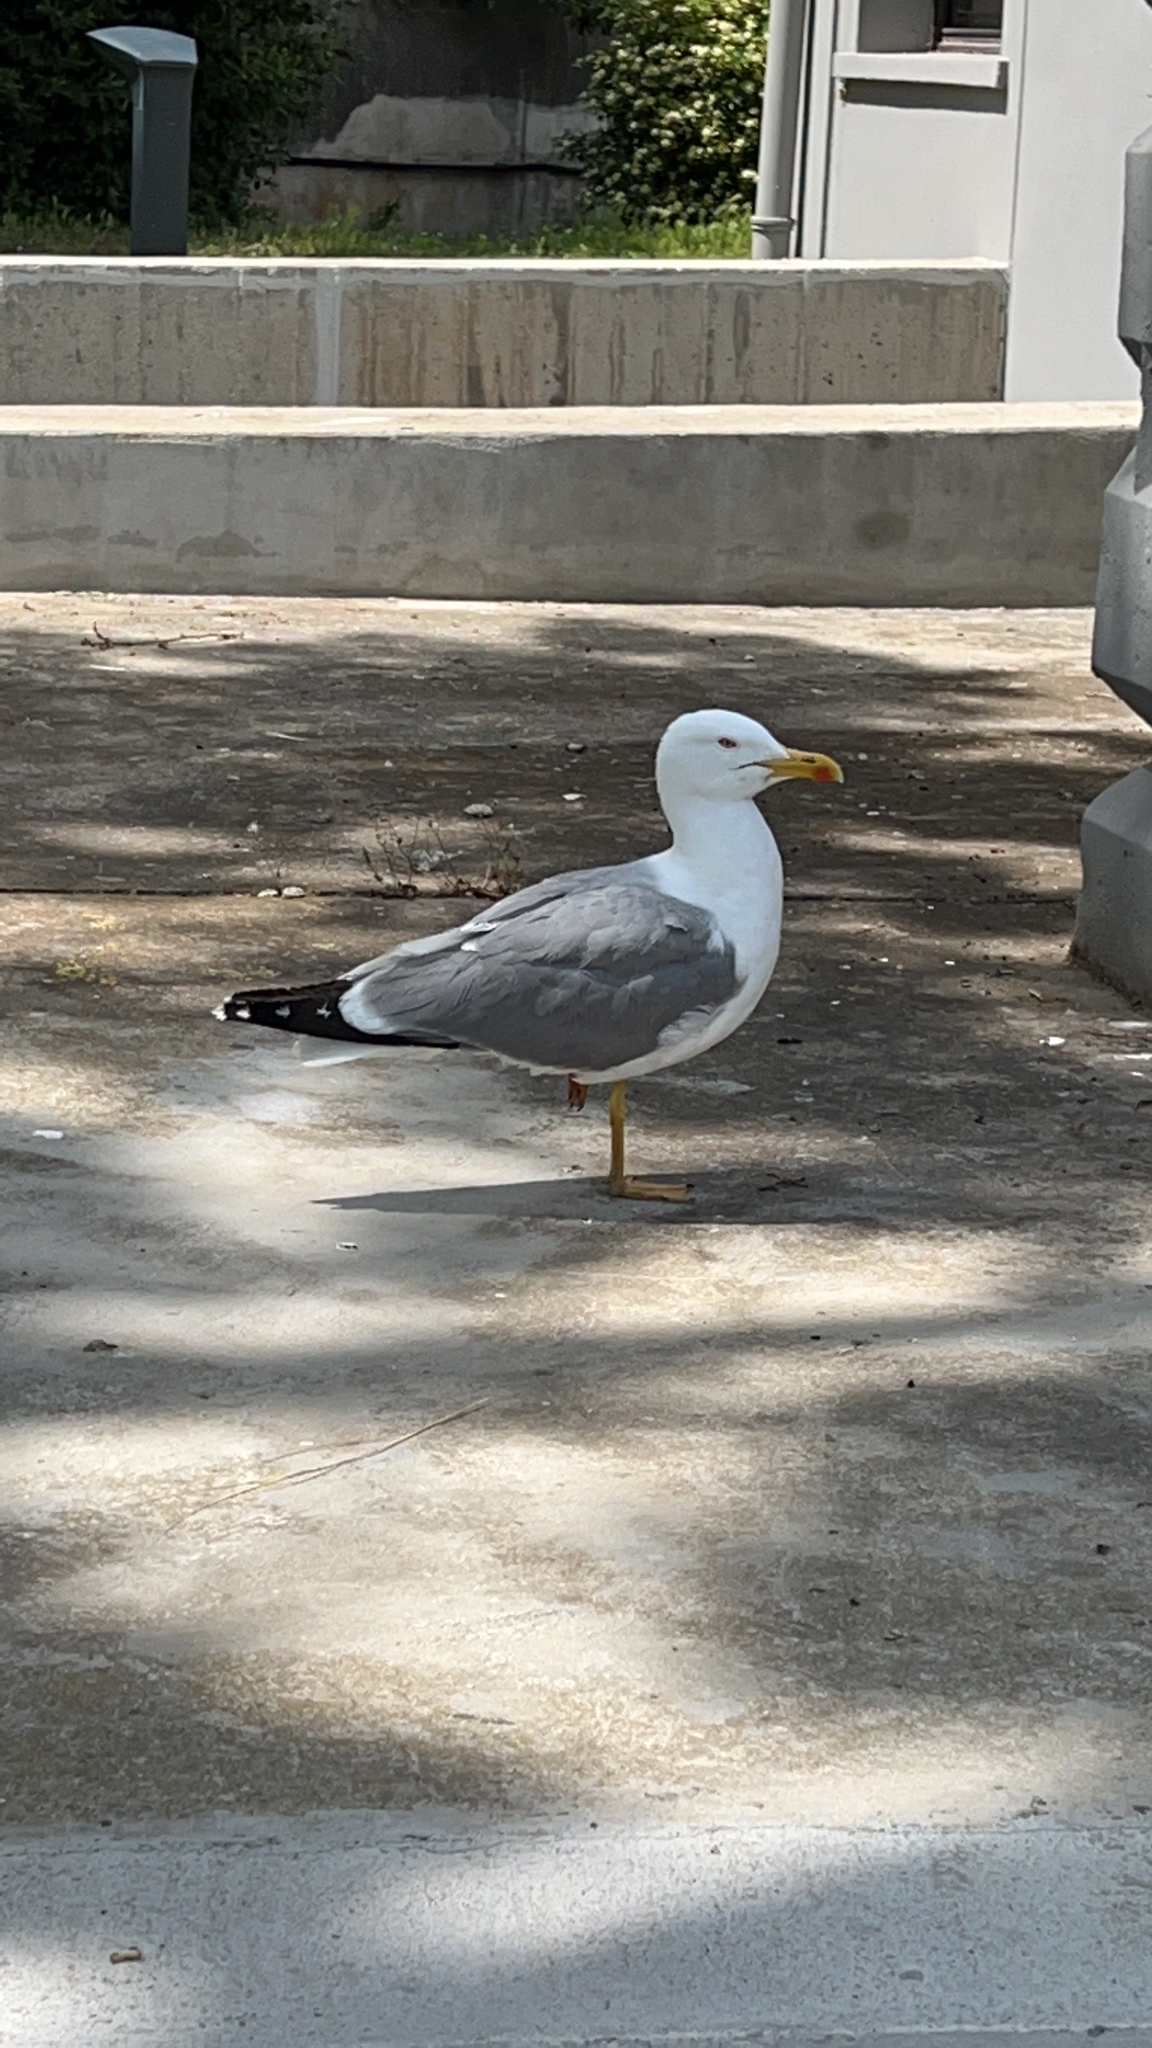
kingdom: Animalia
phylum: Chordata
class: Aves
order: Charadriiformes
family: Laridae
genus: Larus
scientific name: Larus michahellis
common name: Yellow-legged gull
